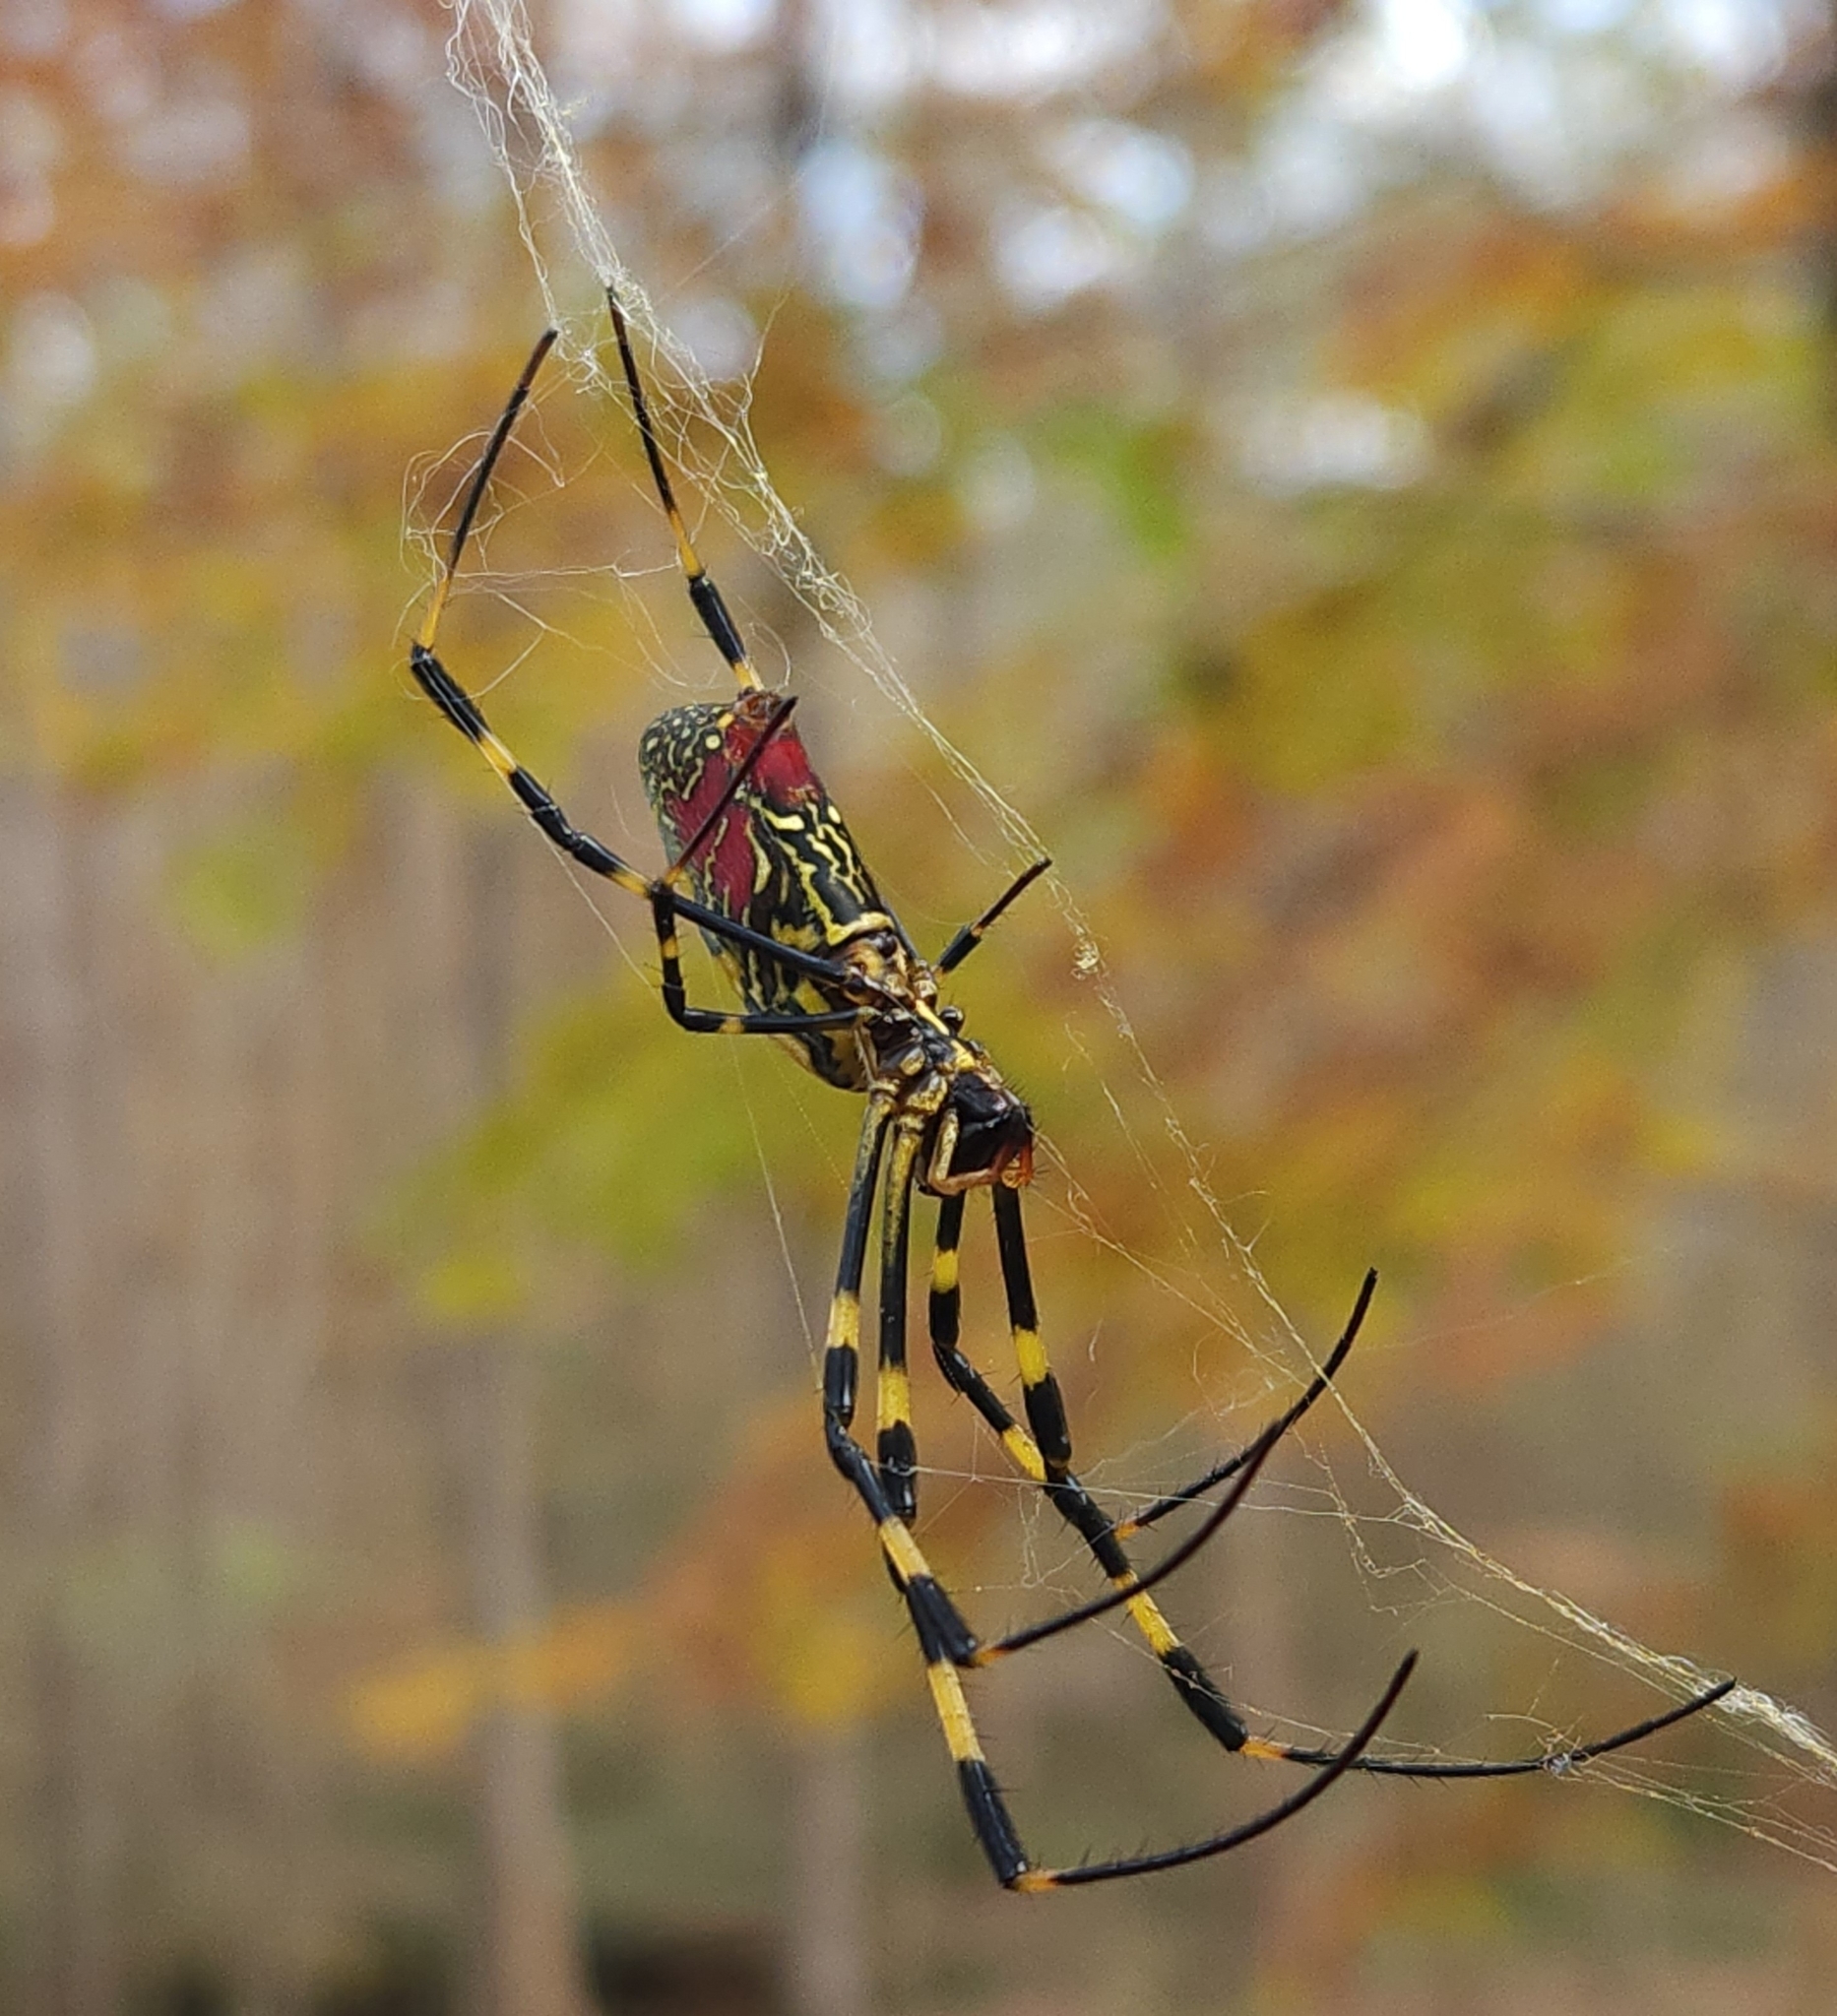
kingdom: Animalia
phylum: Arthropoda
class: Arachnida
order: Araneae
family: Araneidae
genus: Trichonephila
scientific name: Trichonephila clavata
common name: Jorō spider
